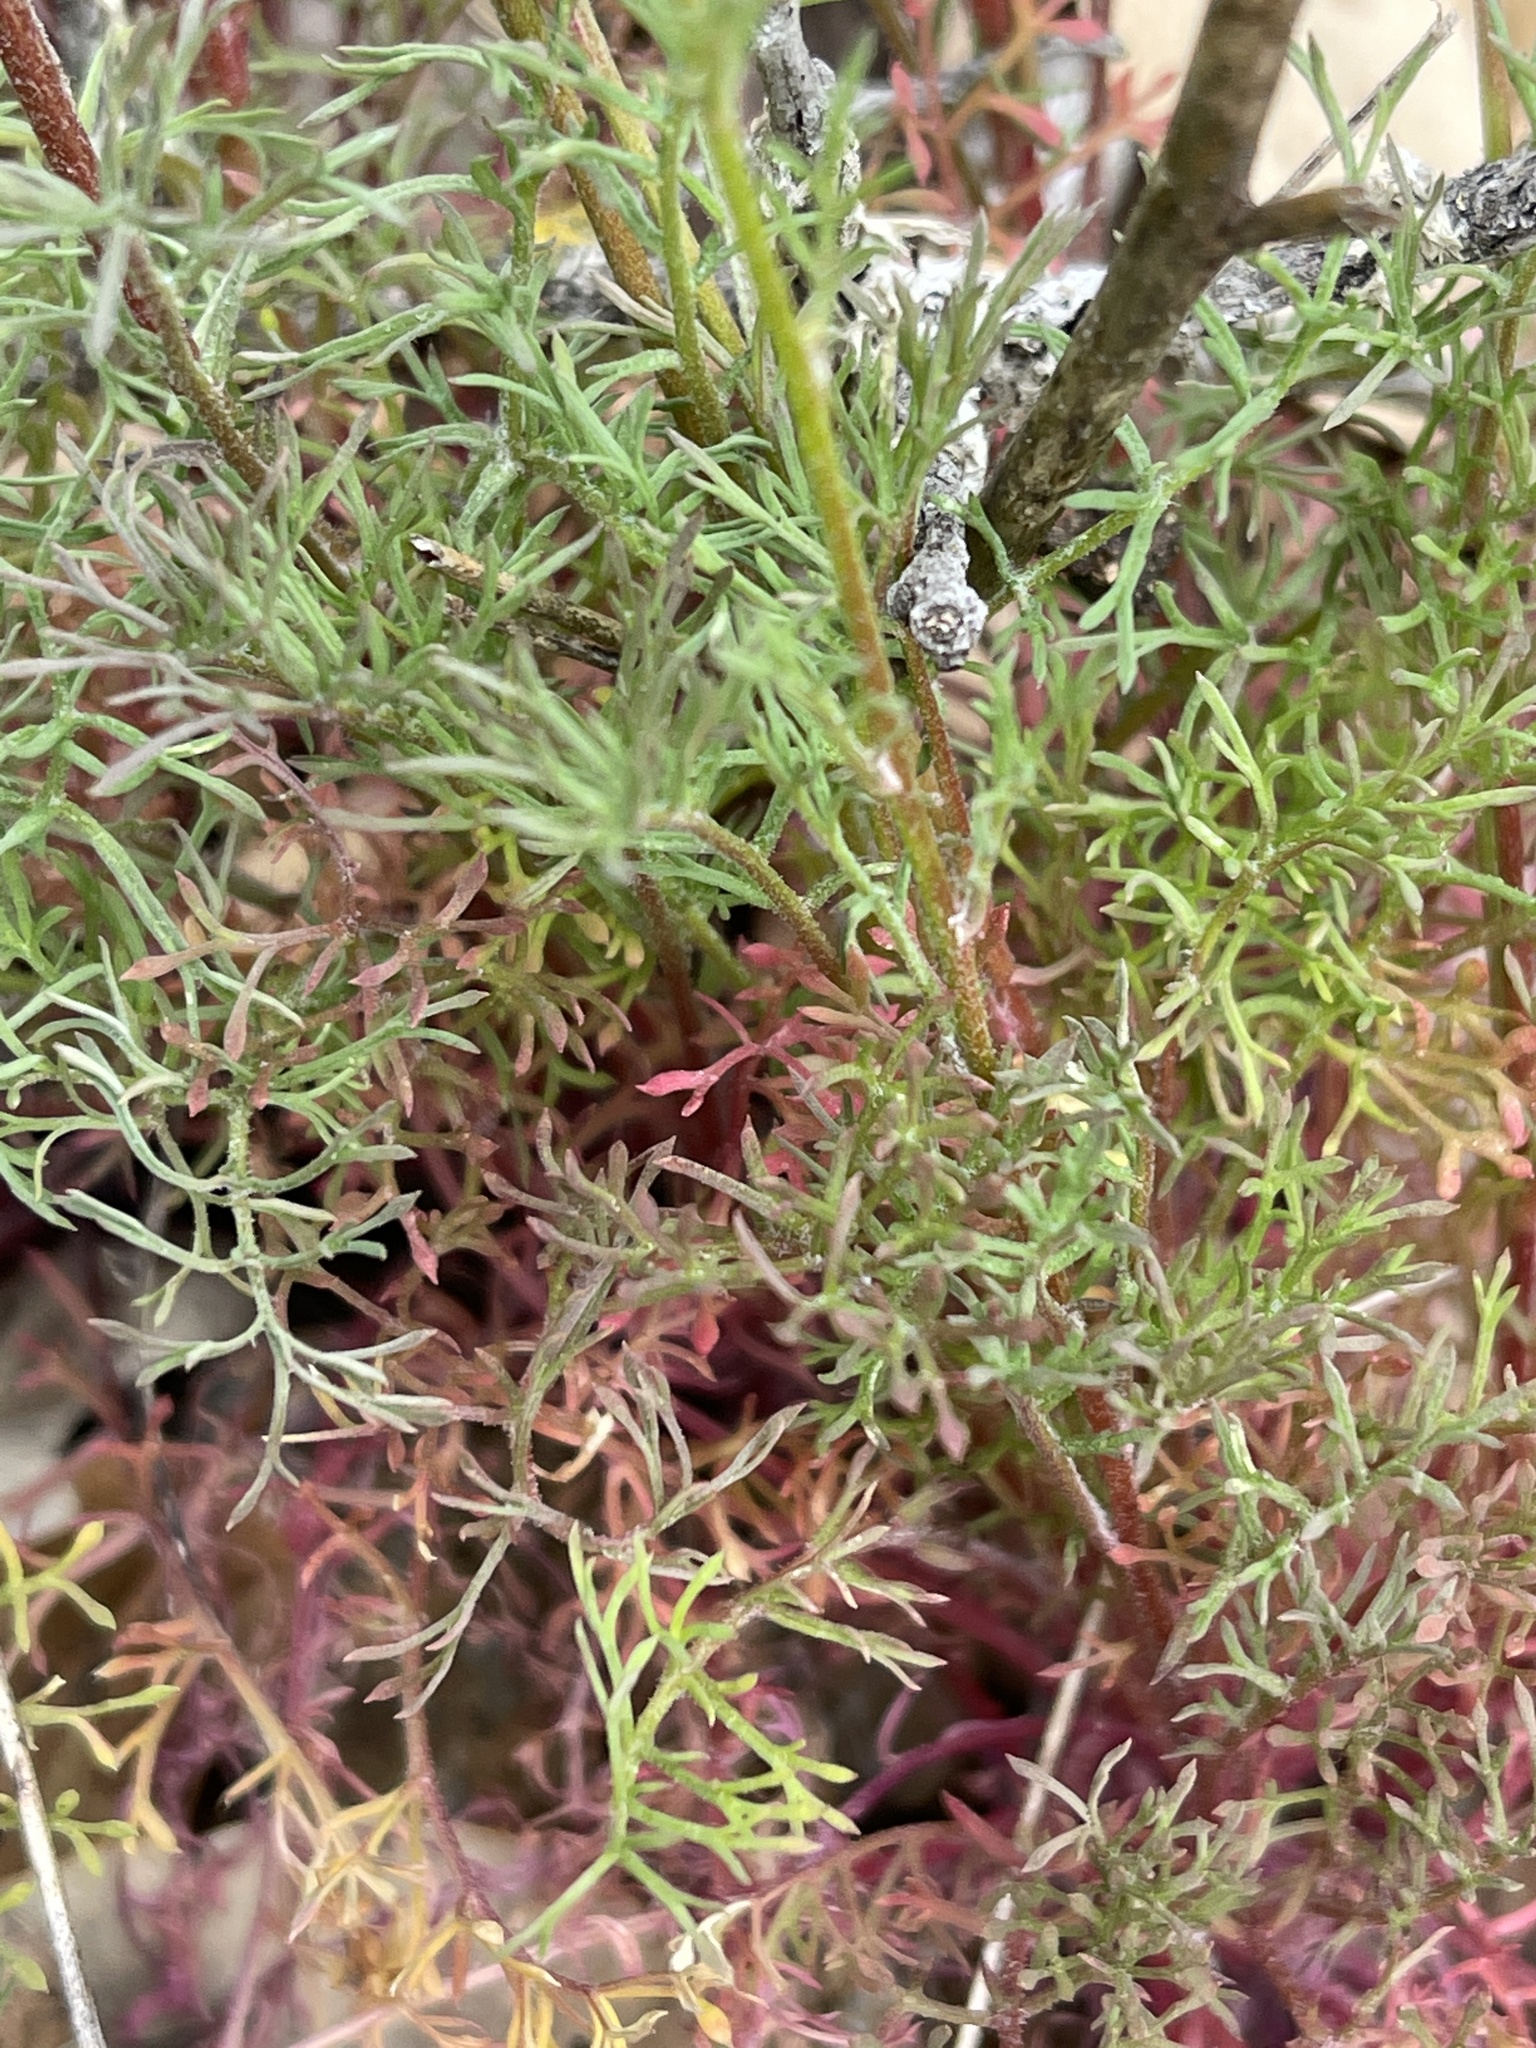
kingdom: Plantae
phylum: Tracheophyta
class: Magnoliopsida
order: Ericales
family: Polemoniaceae
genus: Gilia
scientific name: Gilia achilleifolia
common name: California gily-flower
